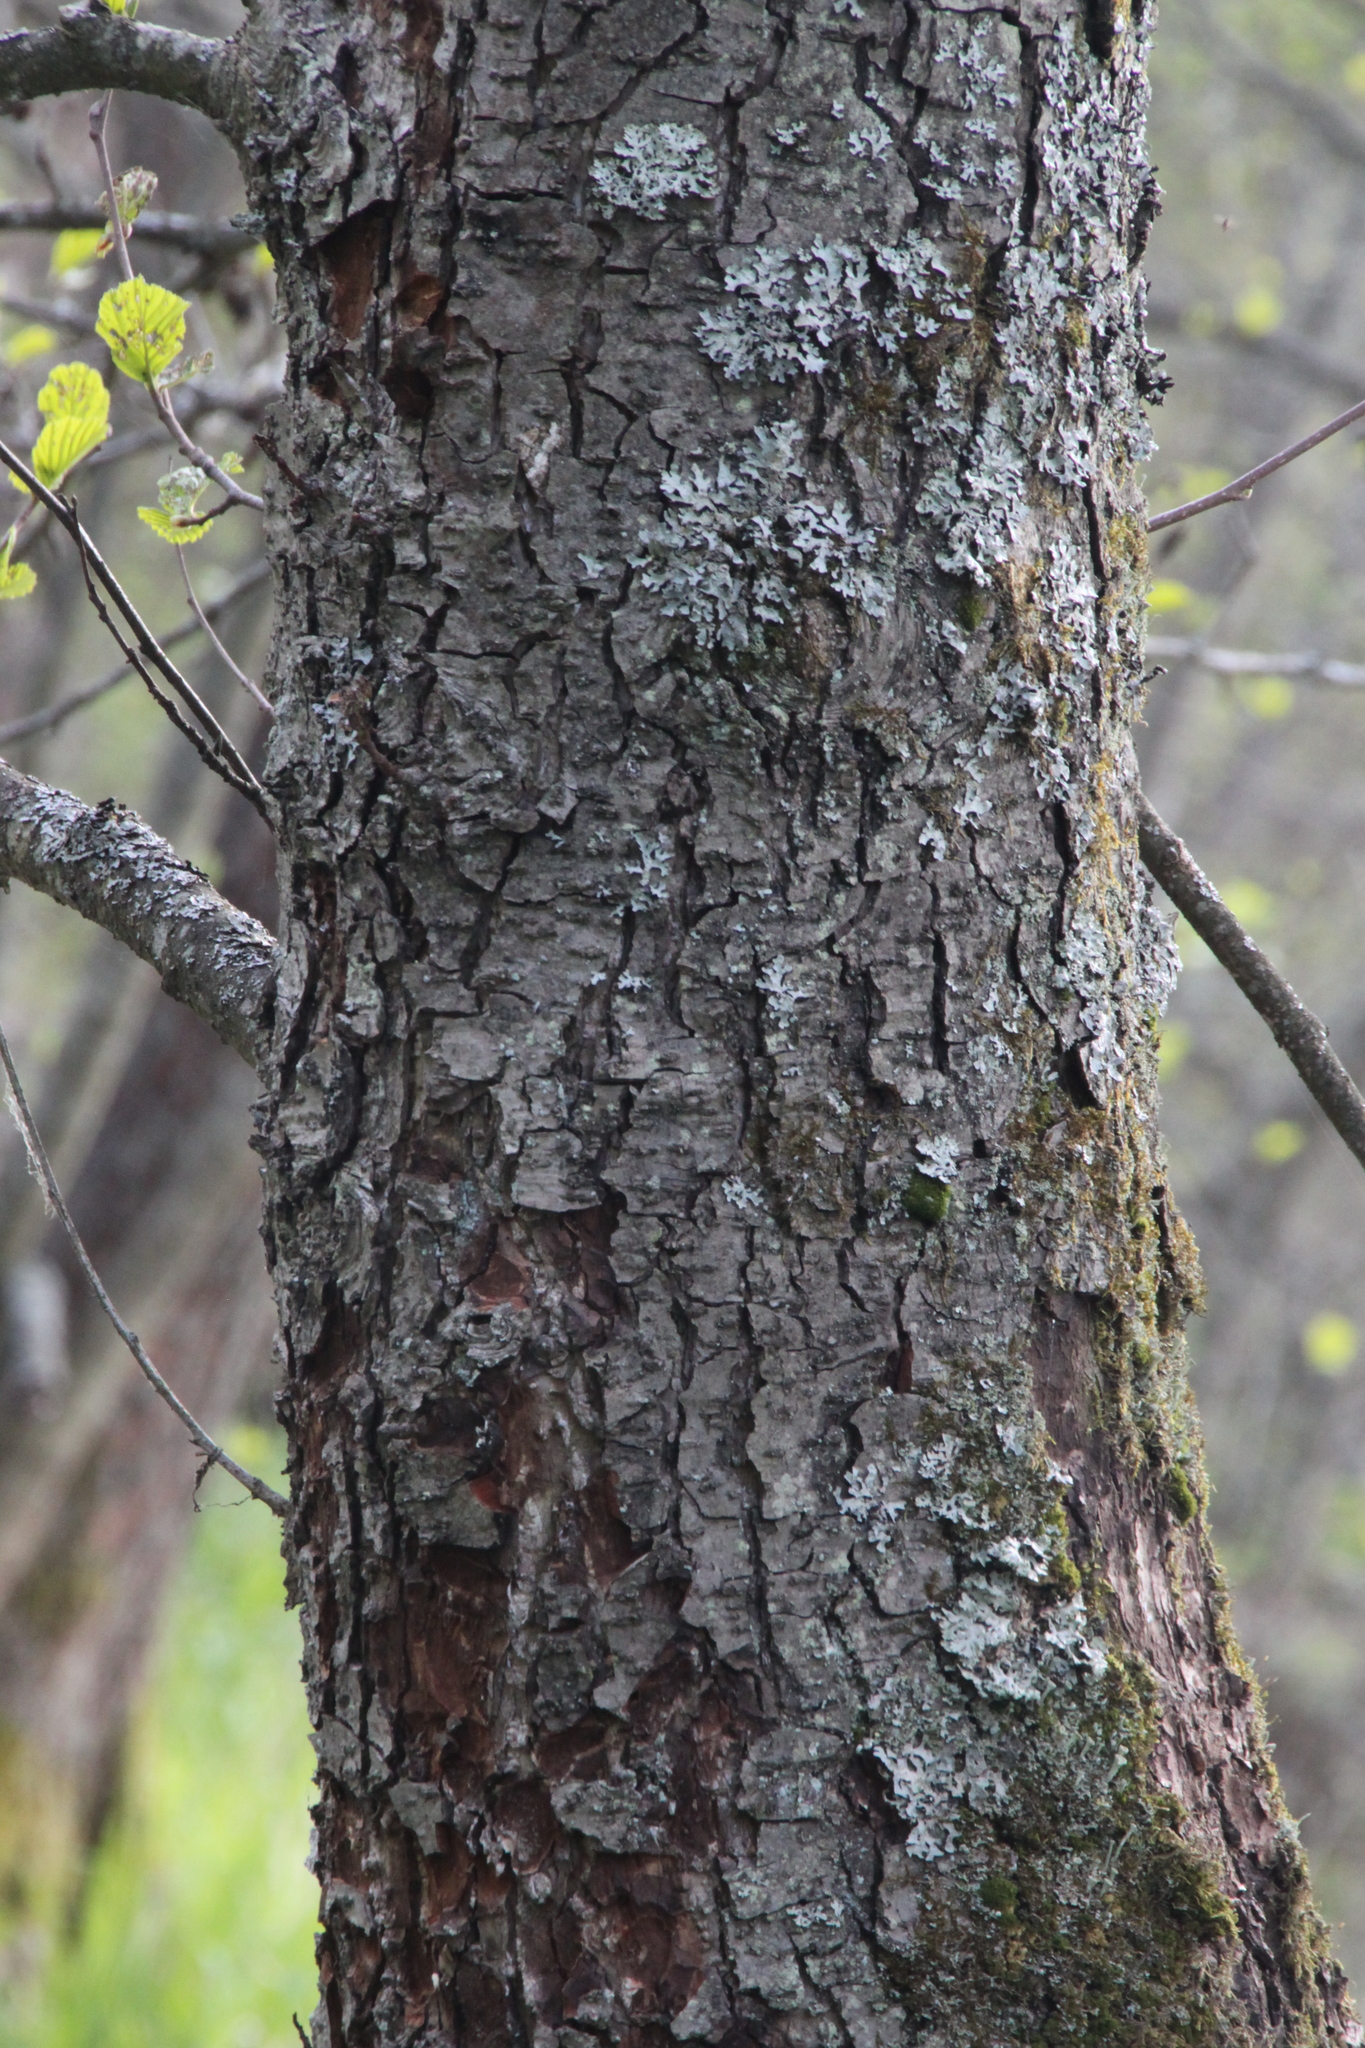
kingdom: Plantae
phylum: Tracheophyta
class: Magnoliopsida
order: Fagales
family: Betulaceae
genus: Alnus
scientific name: Alnus glutinosa
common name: Black alder
